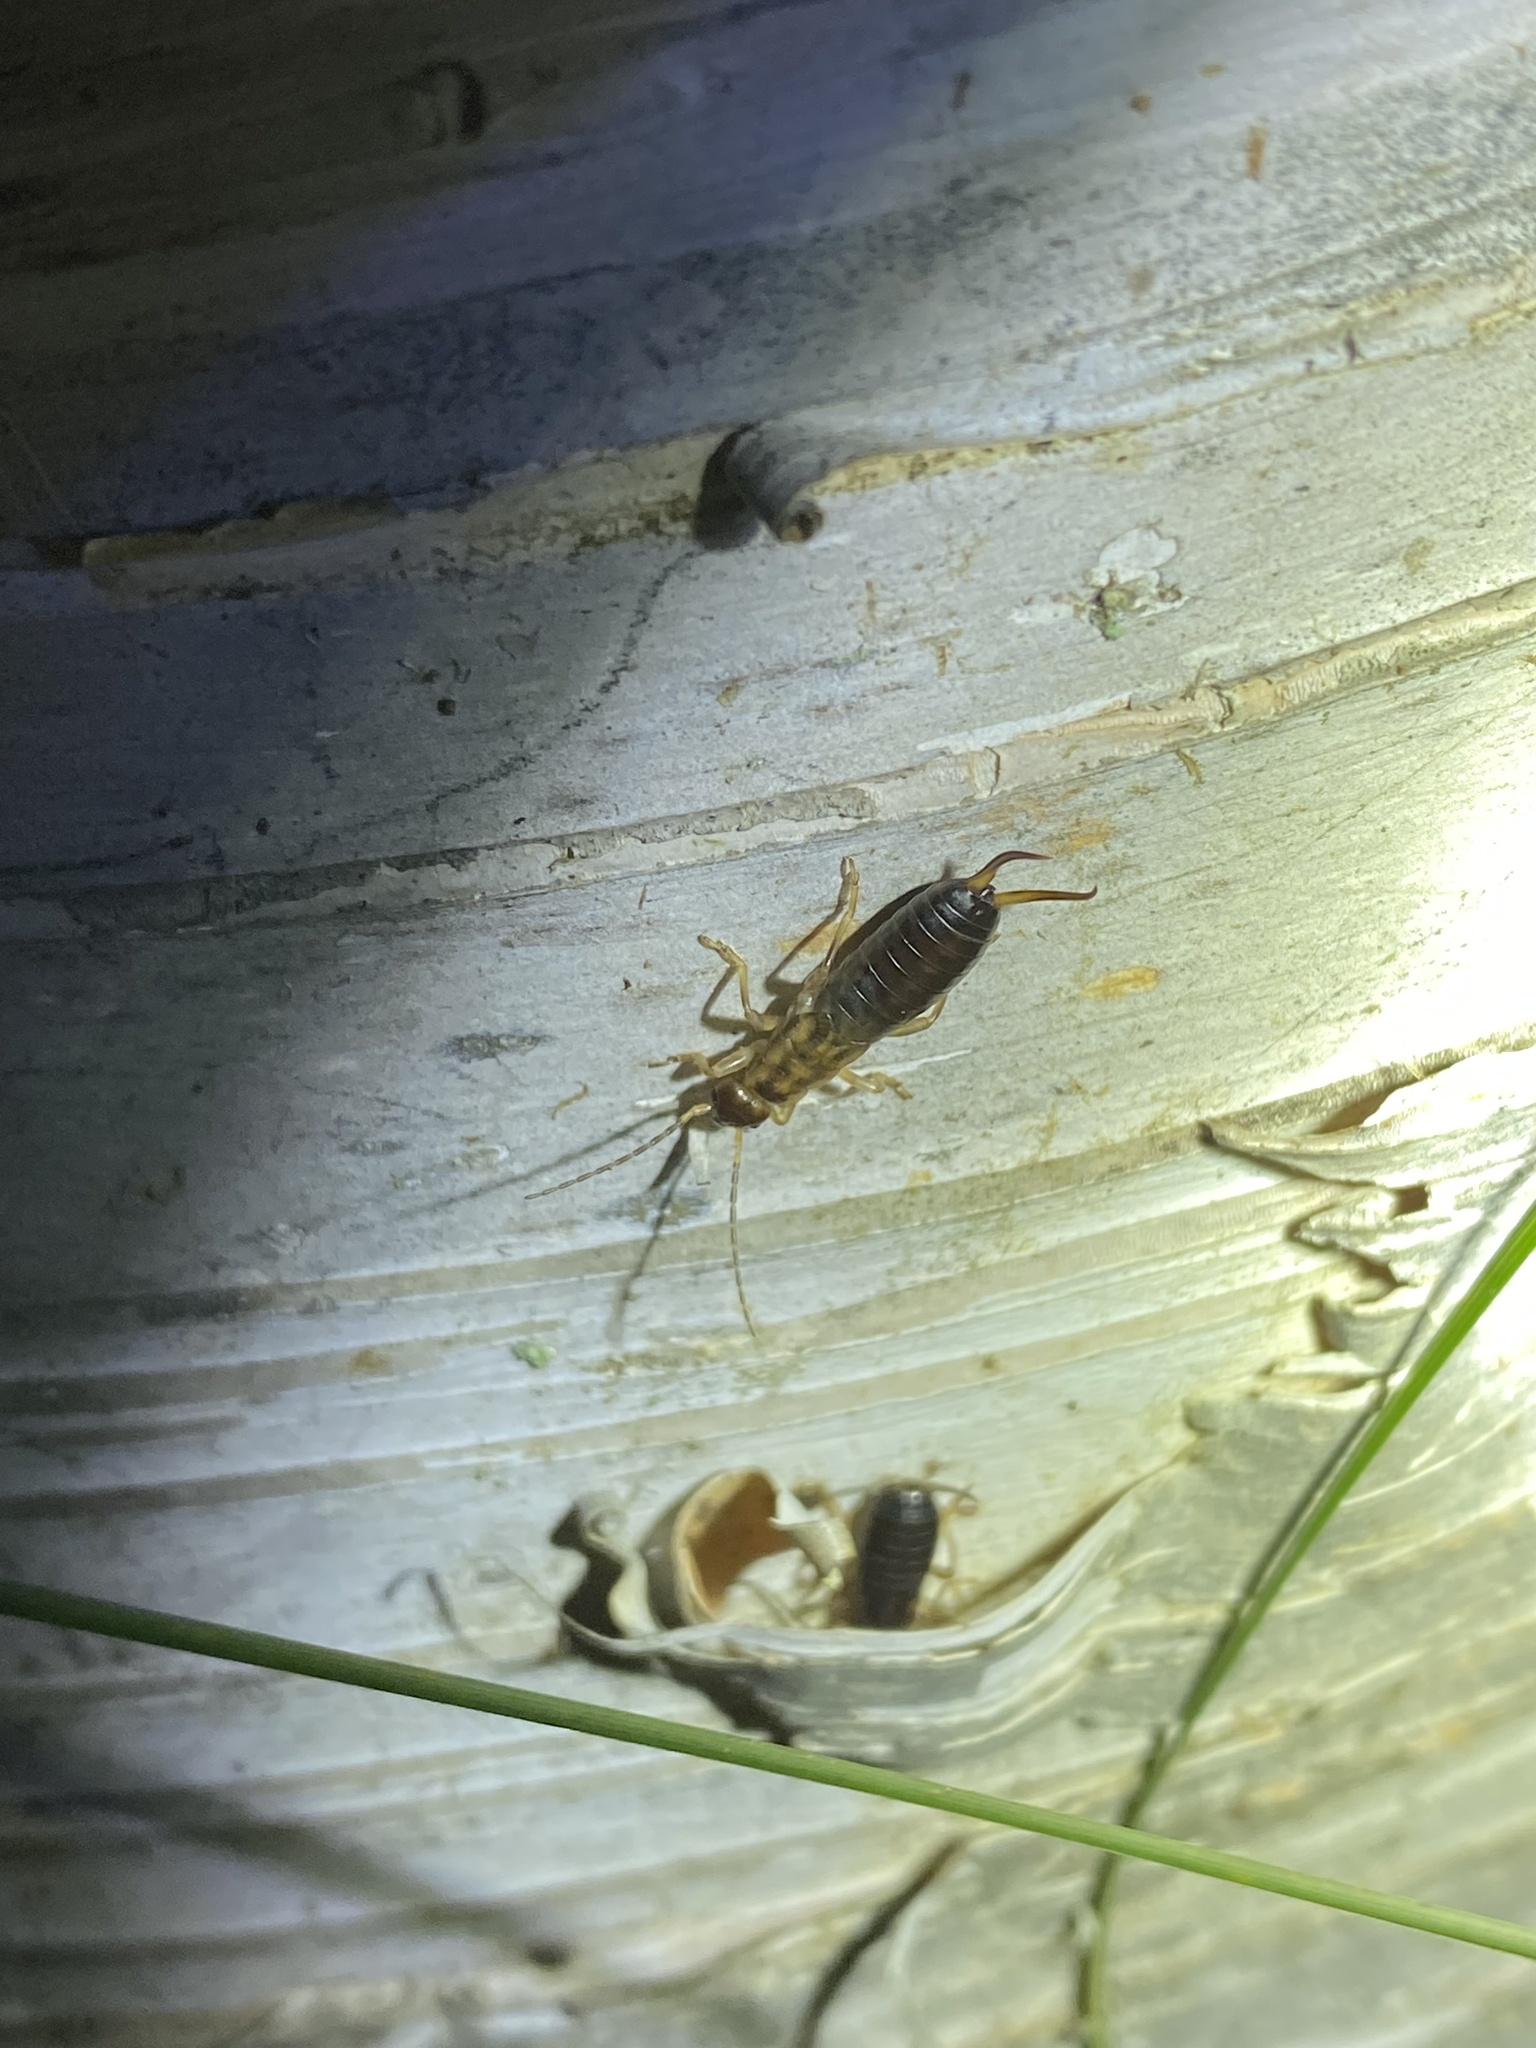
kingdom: Animalia
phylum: Arthropoda
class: Insecta
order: Dermaptera
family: Forficulidae
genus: Forficula
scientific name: Forficula
